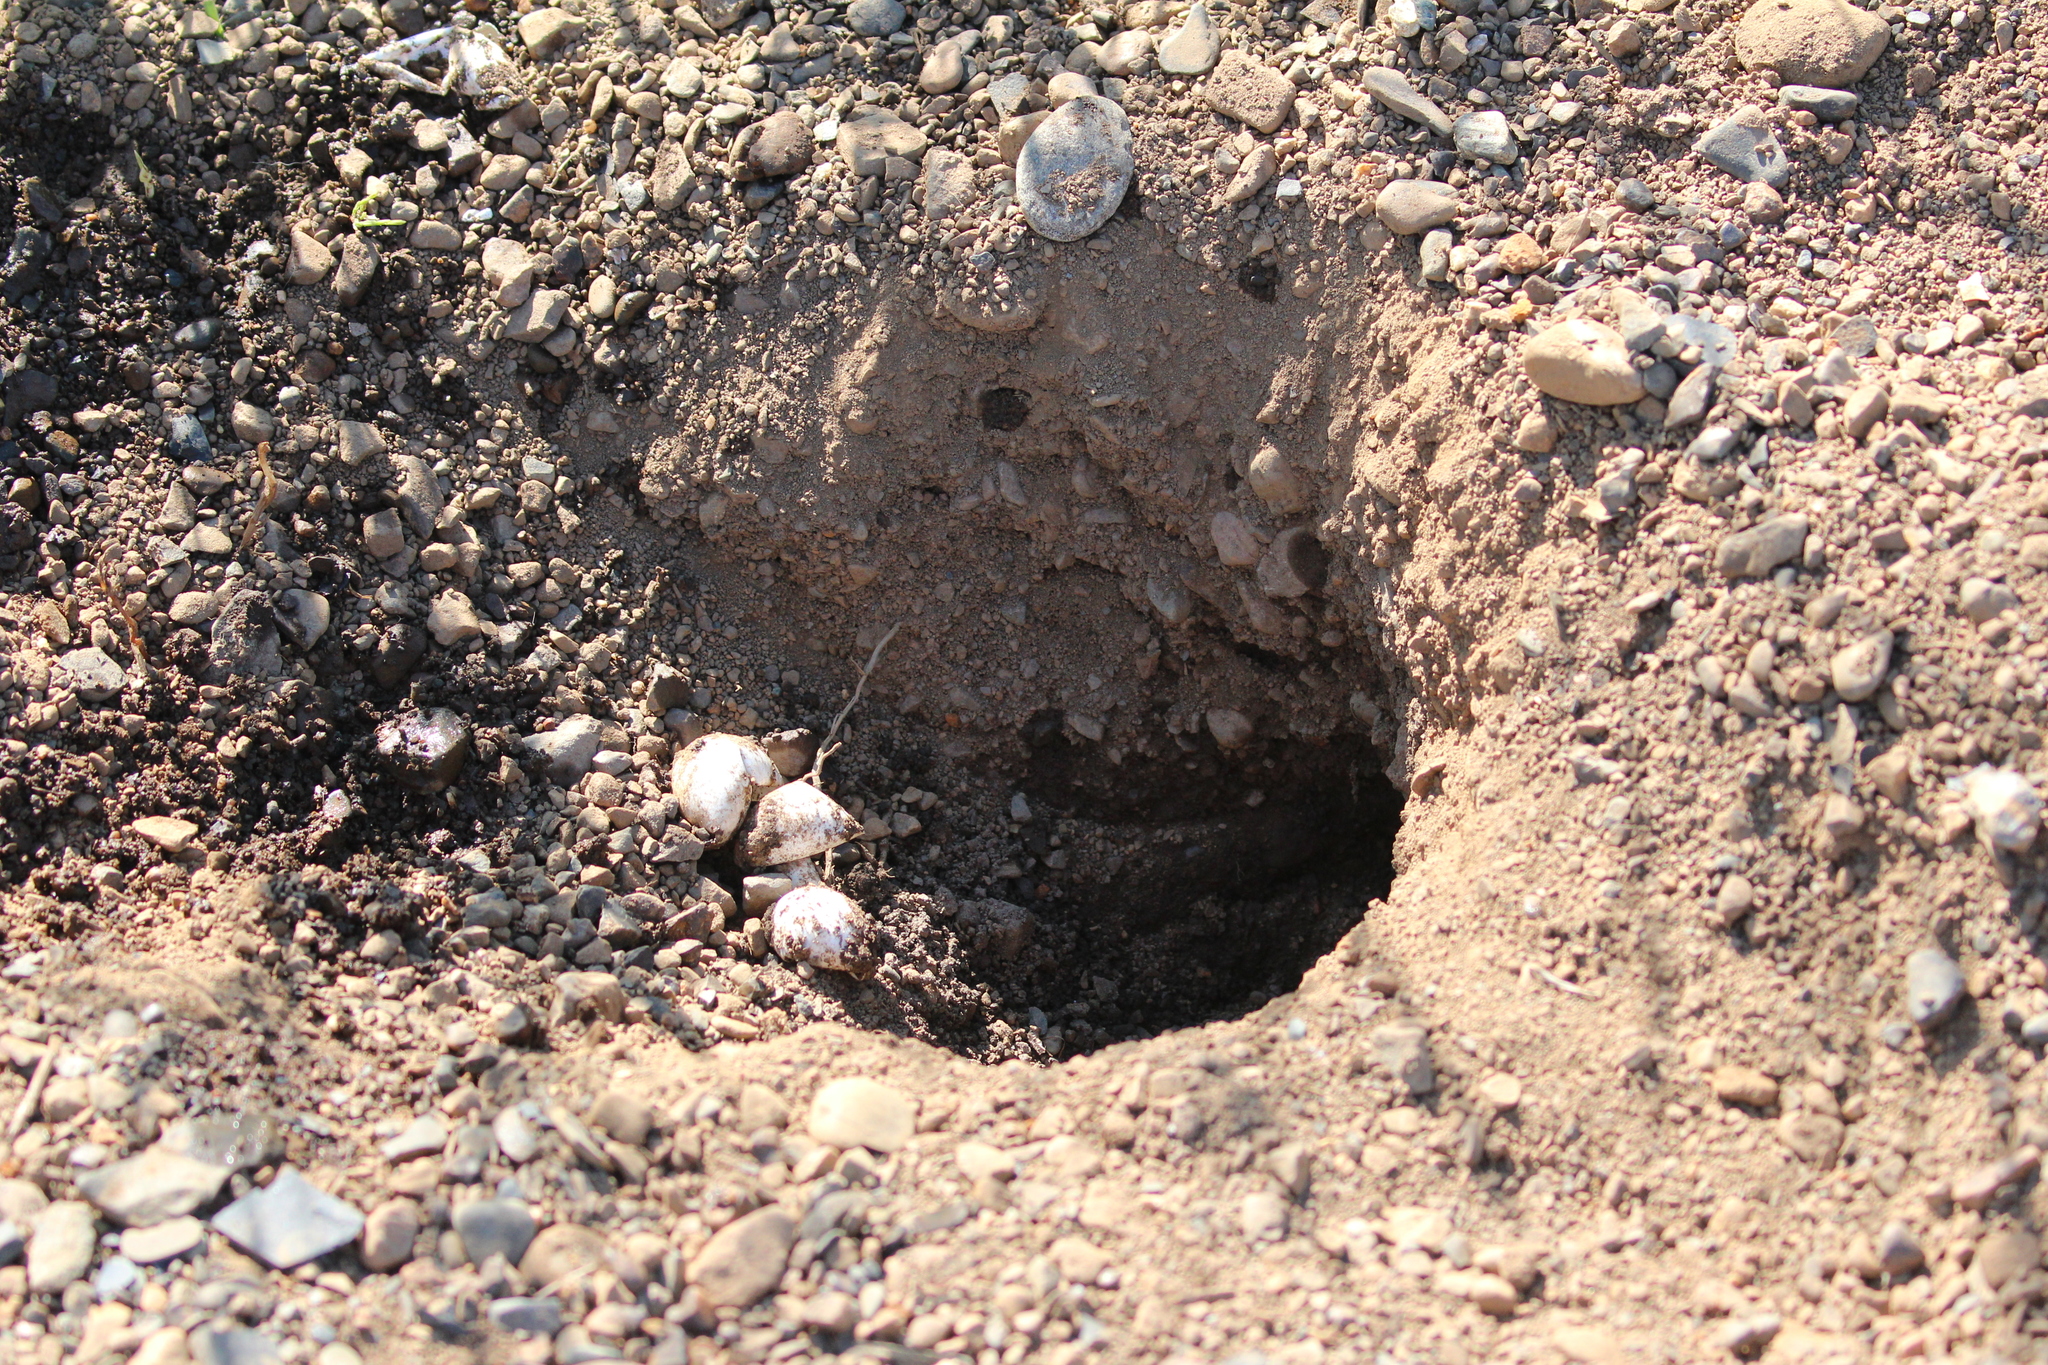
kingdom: Animalia
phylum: Chordata
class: Testudines
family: Chelydridae
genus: Chelydra
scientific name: Chelydra serpentina
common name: Common snapping turtle
